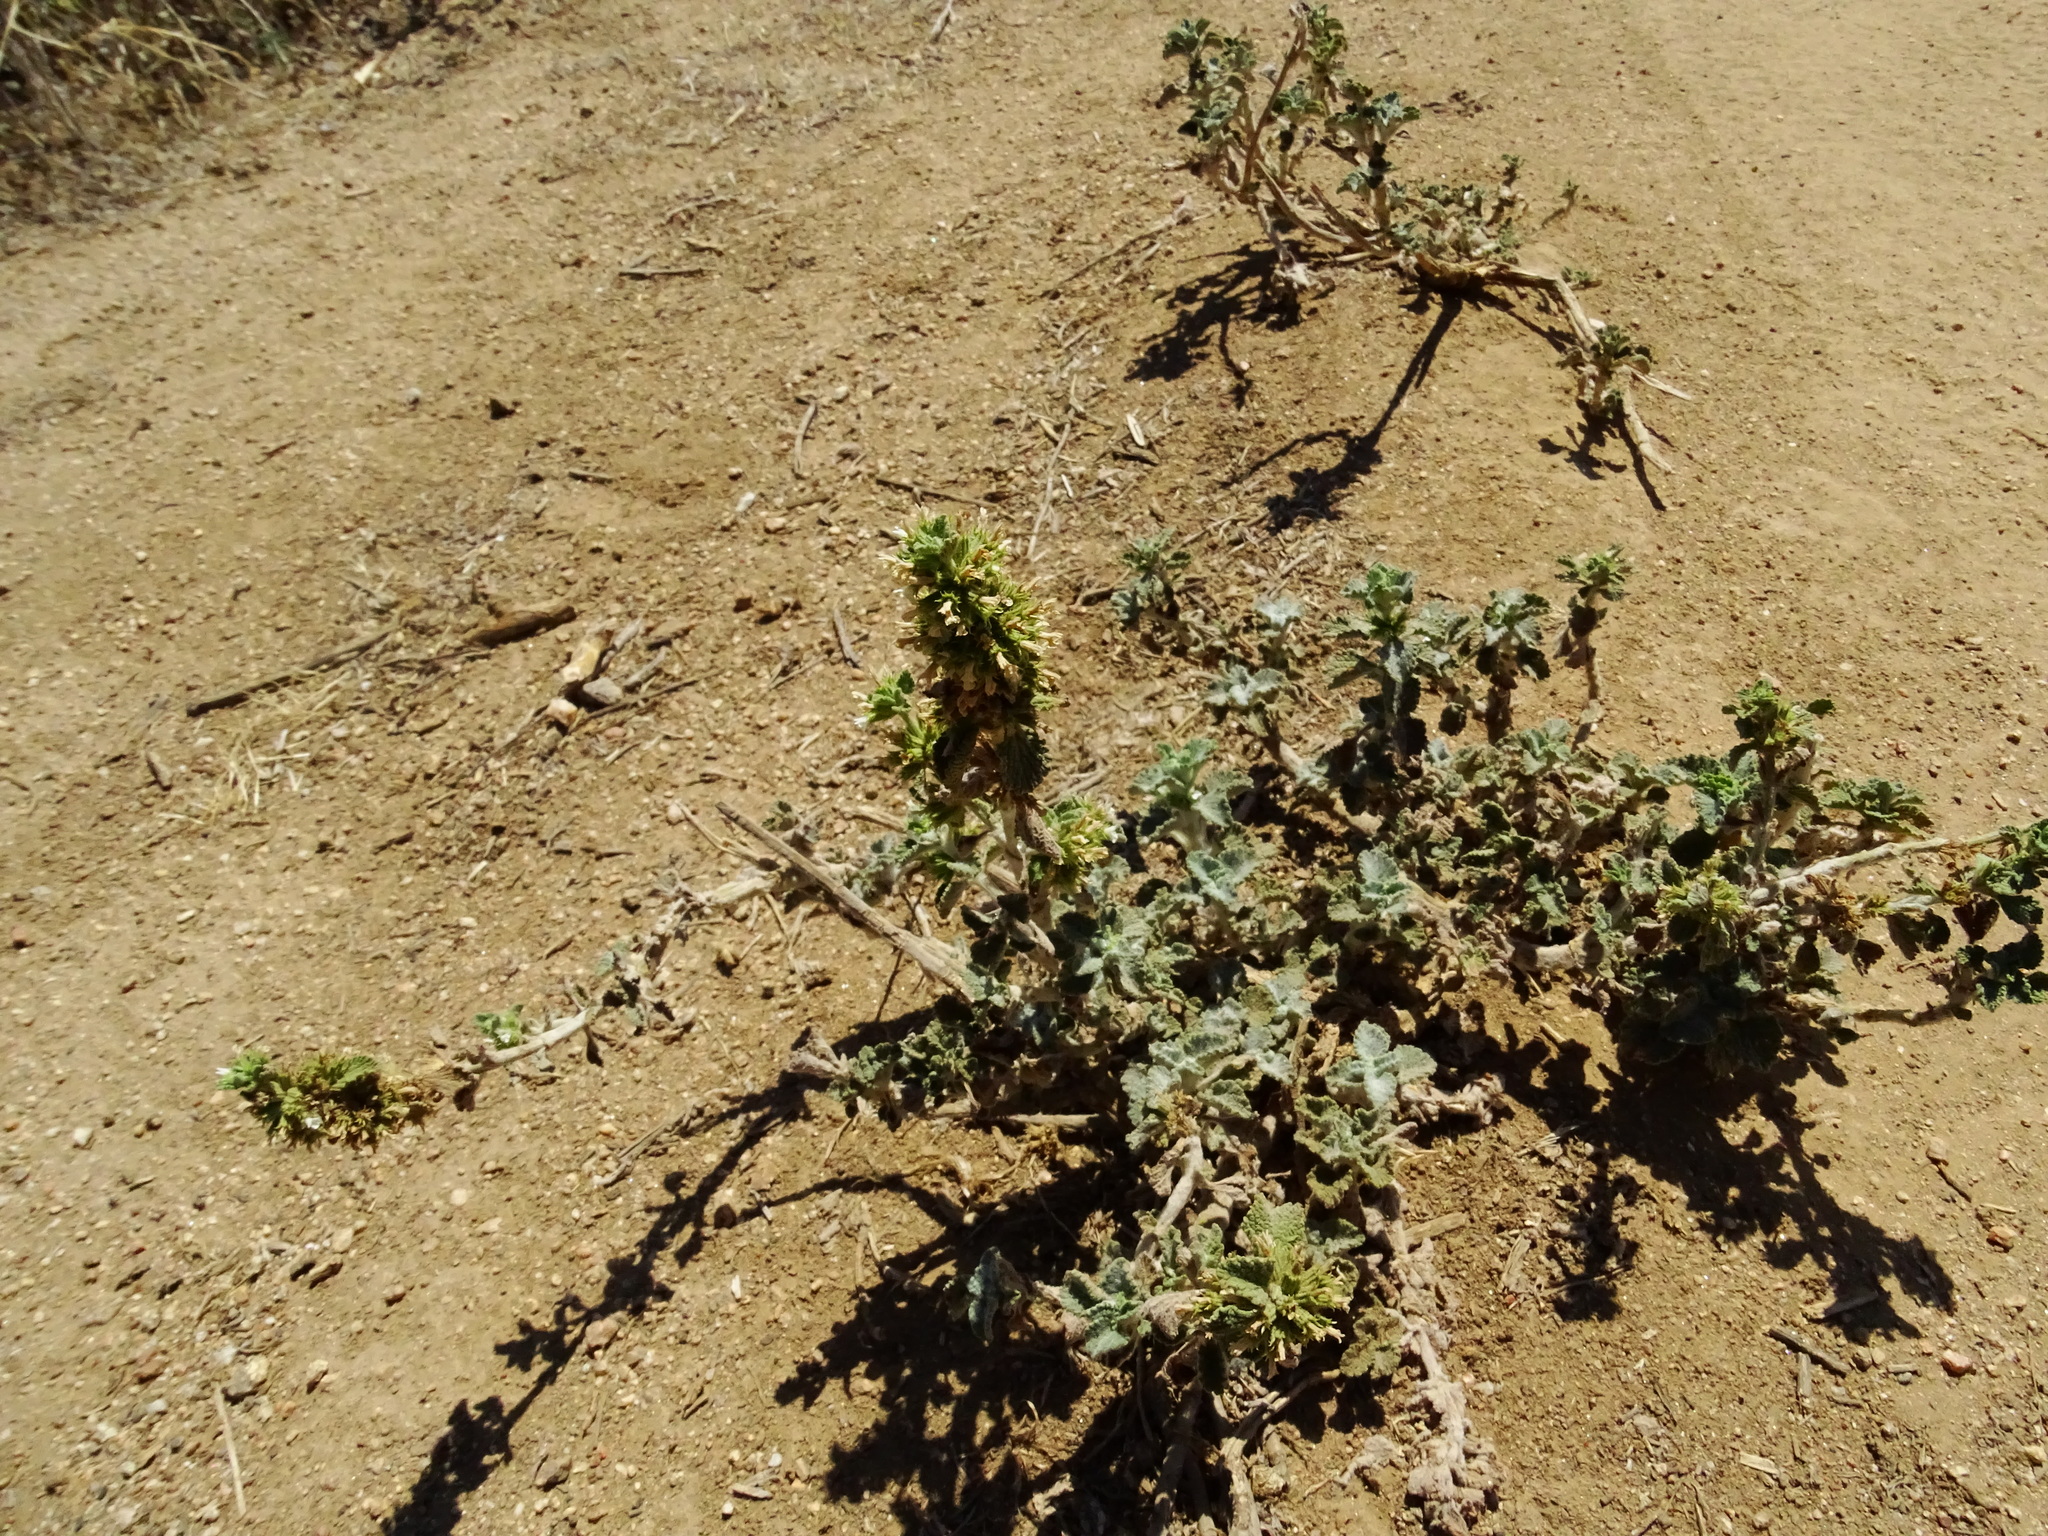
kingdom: Plantae
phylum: Tracheophyta
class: Magnoliopsida
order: Lamiales
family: Lamiaceae
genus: Marrubium
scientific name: Marrubium vulgare
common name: Horehound
